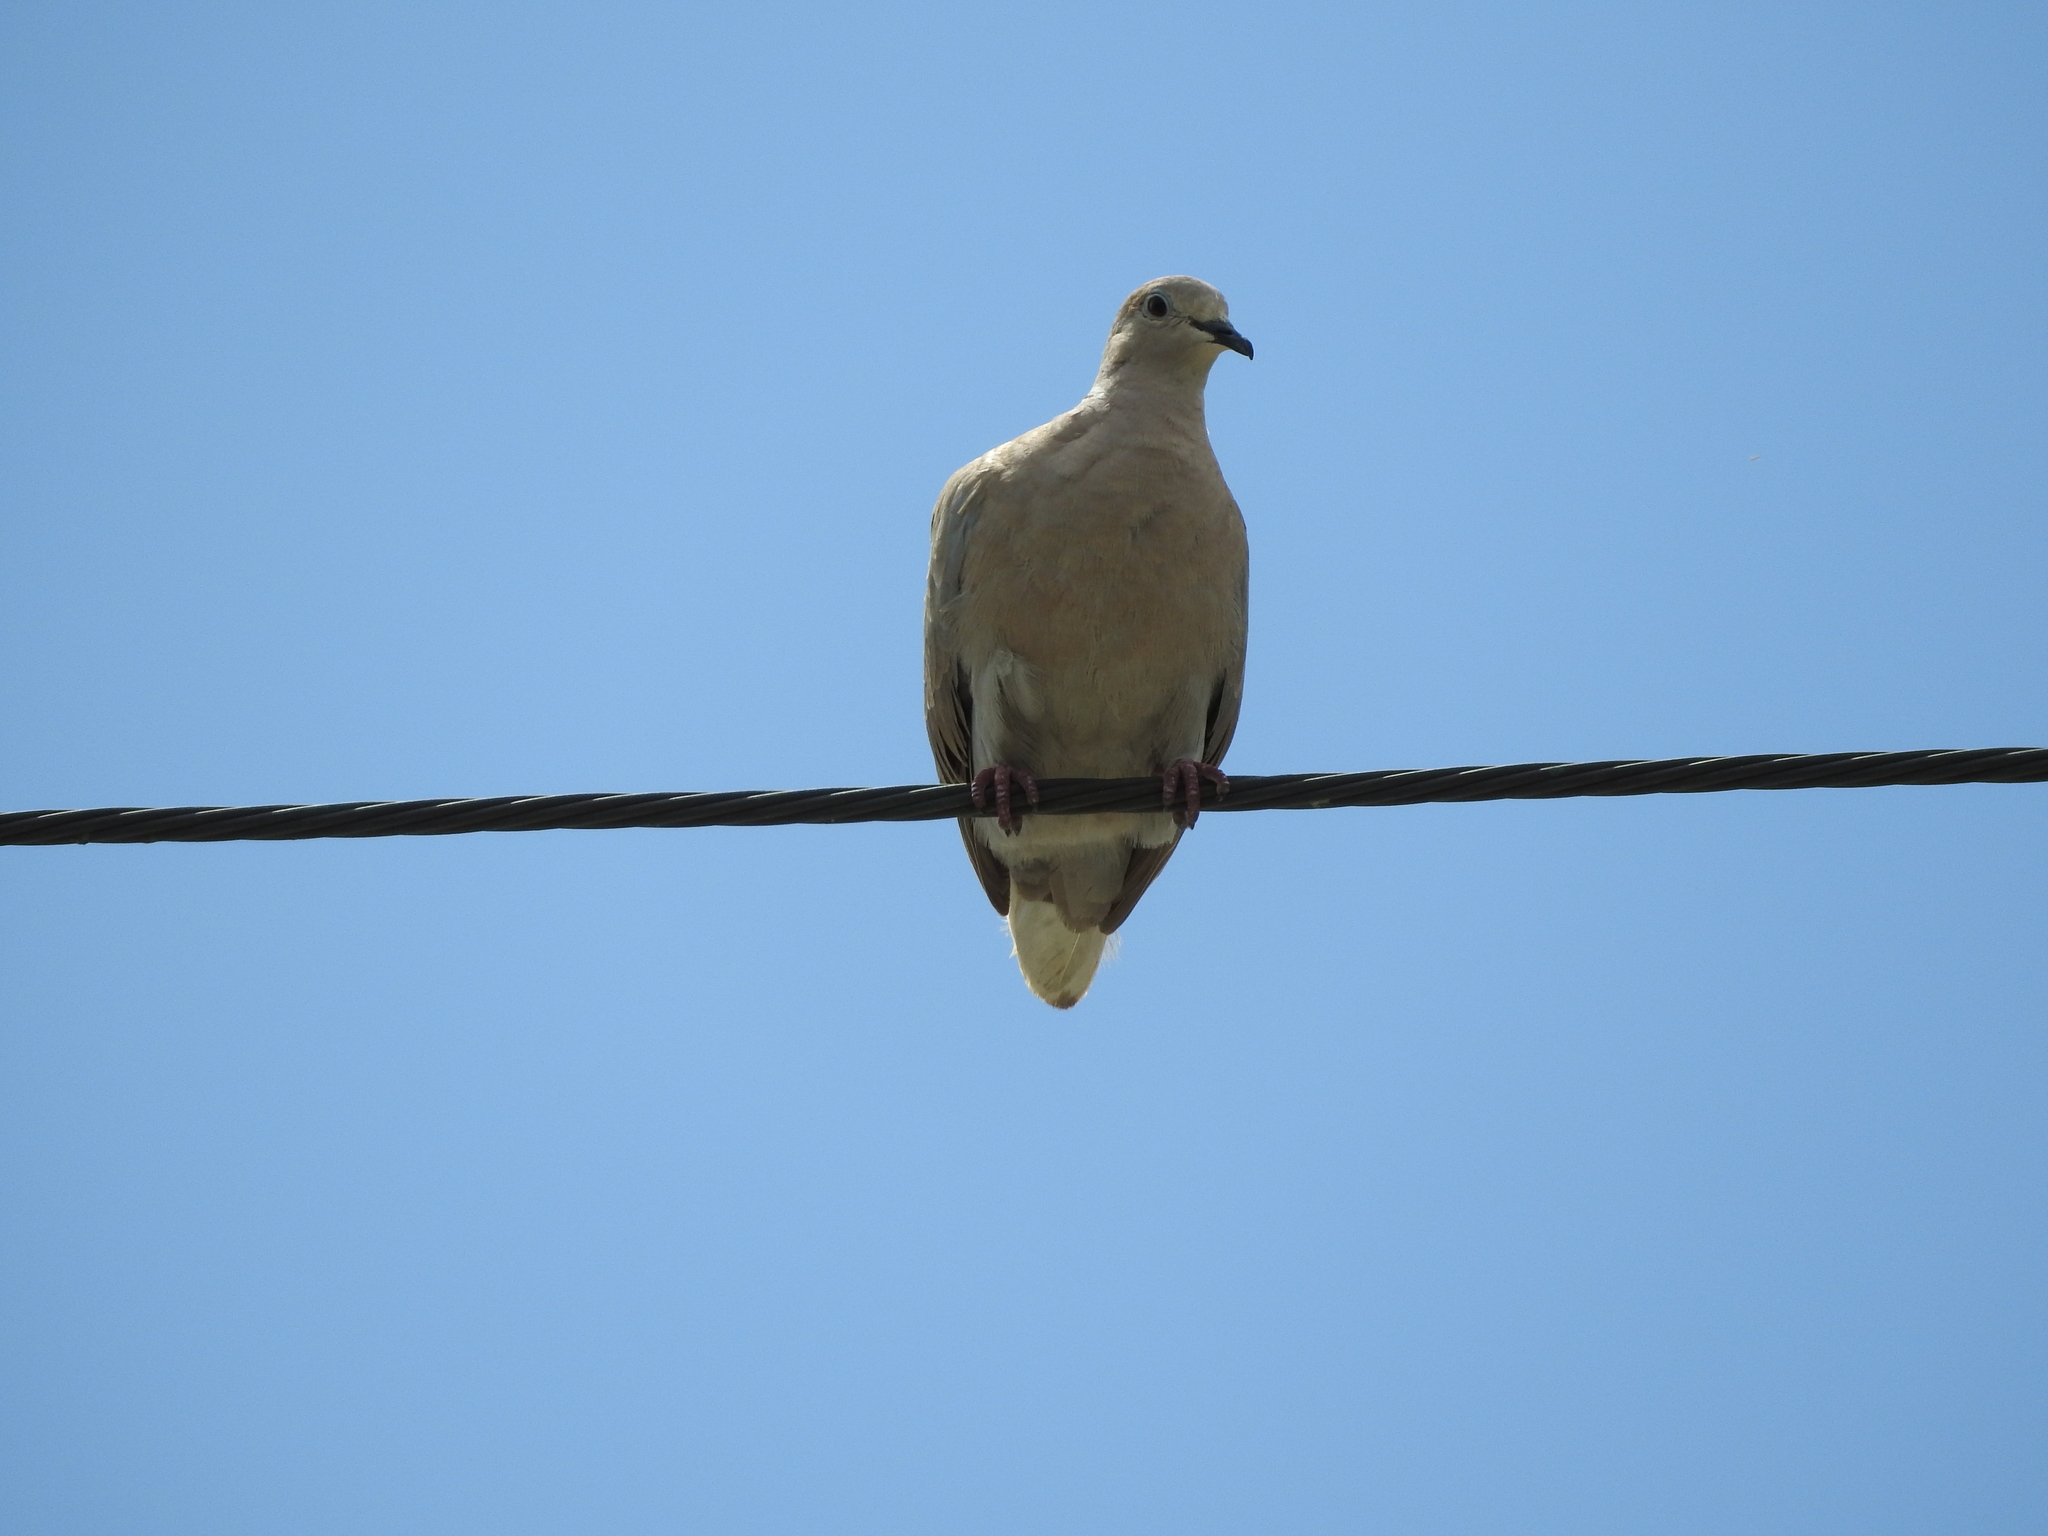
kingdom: Animalia
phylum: Chordata
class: Aves
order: Columbiformes
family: Columbidae
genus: Streptopelia
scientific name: Streptopelia decaocto
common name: Eurasian collared dove
